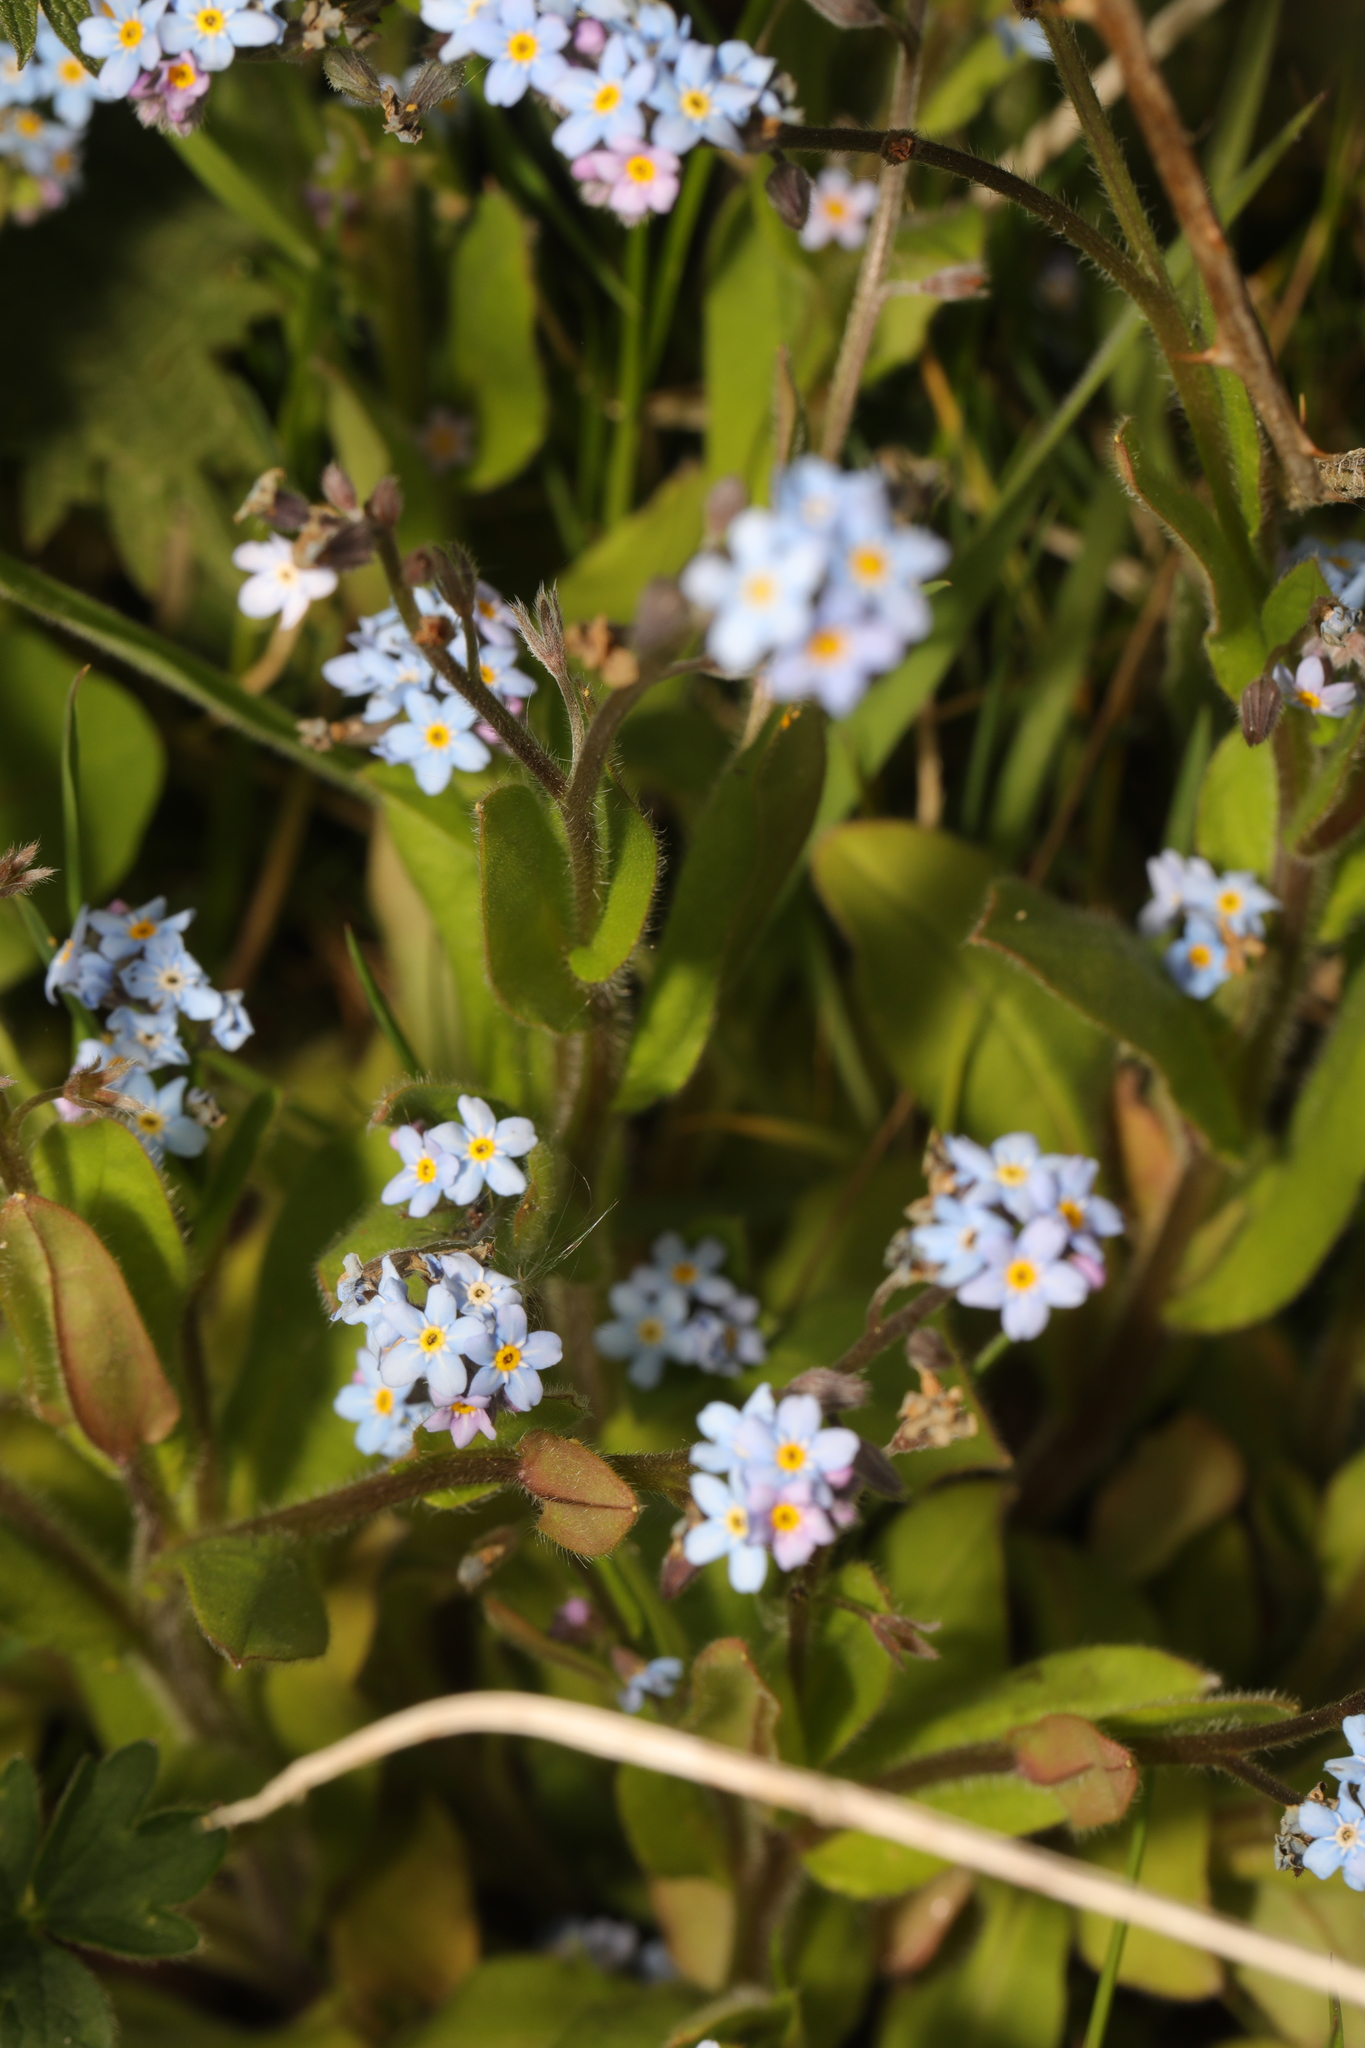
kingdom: Plantae
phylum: Tracheophyta
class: Magnoliopsida
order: Boraginales
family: Boraginaceae
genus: Myosotis
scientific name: Myosotis sylvatica
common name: Wood forget-me-not
